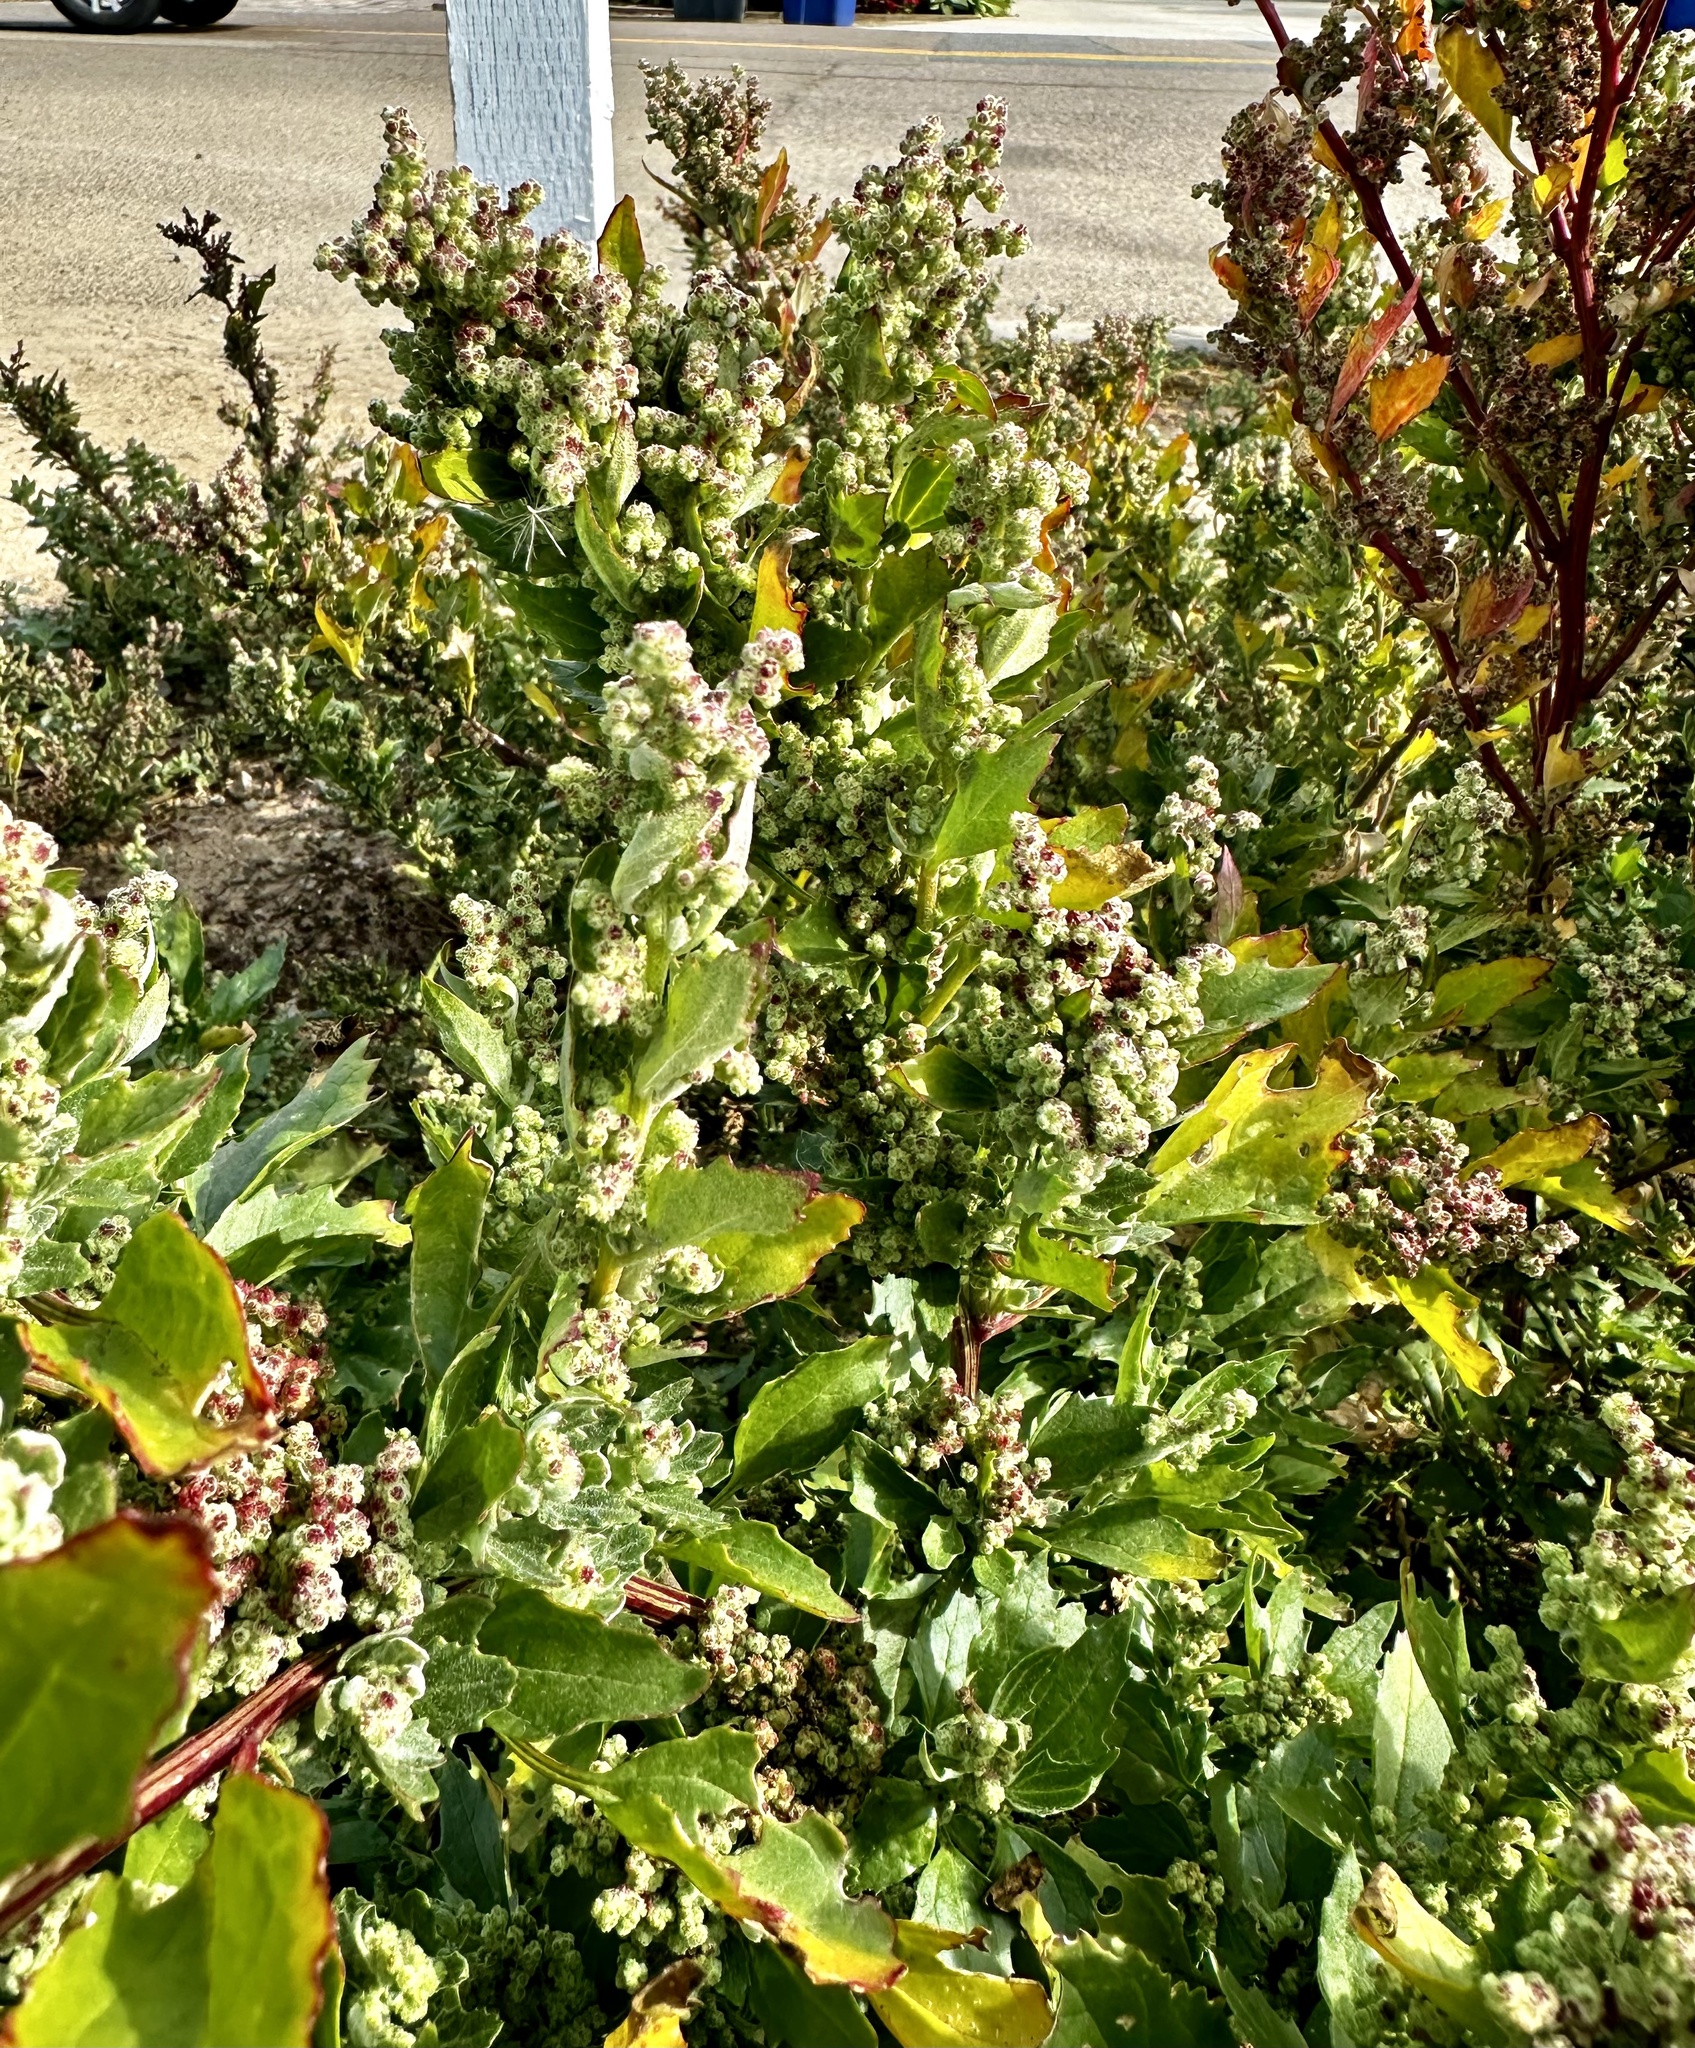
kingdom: Plantae
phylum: Tracheophyta
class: Magnoliopsida
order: Caryophyllales
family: Amaranthaceae
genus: Chenopodiastrum
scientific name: Chenopodiastrum murale
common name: Sowbane
